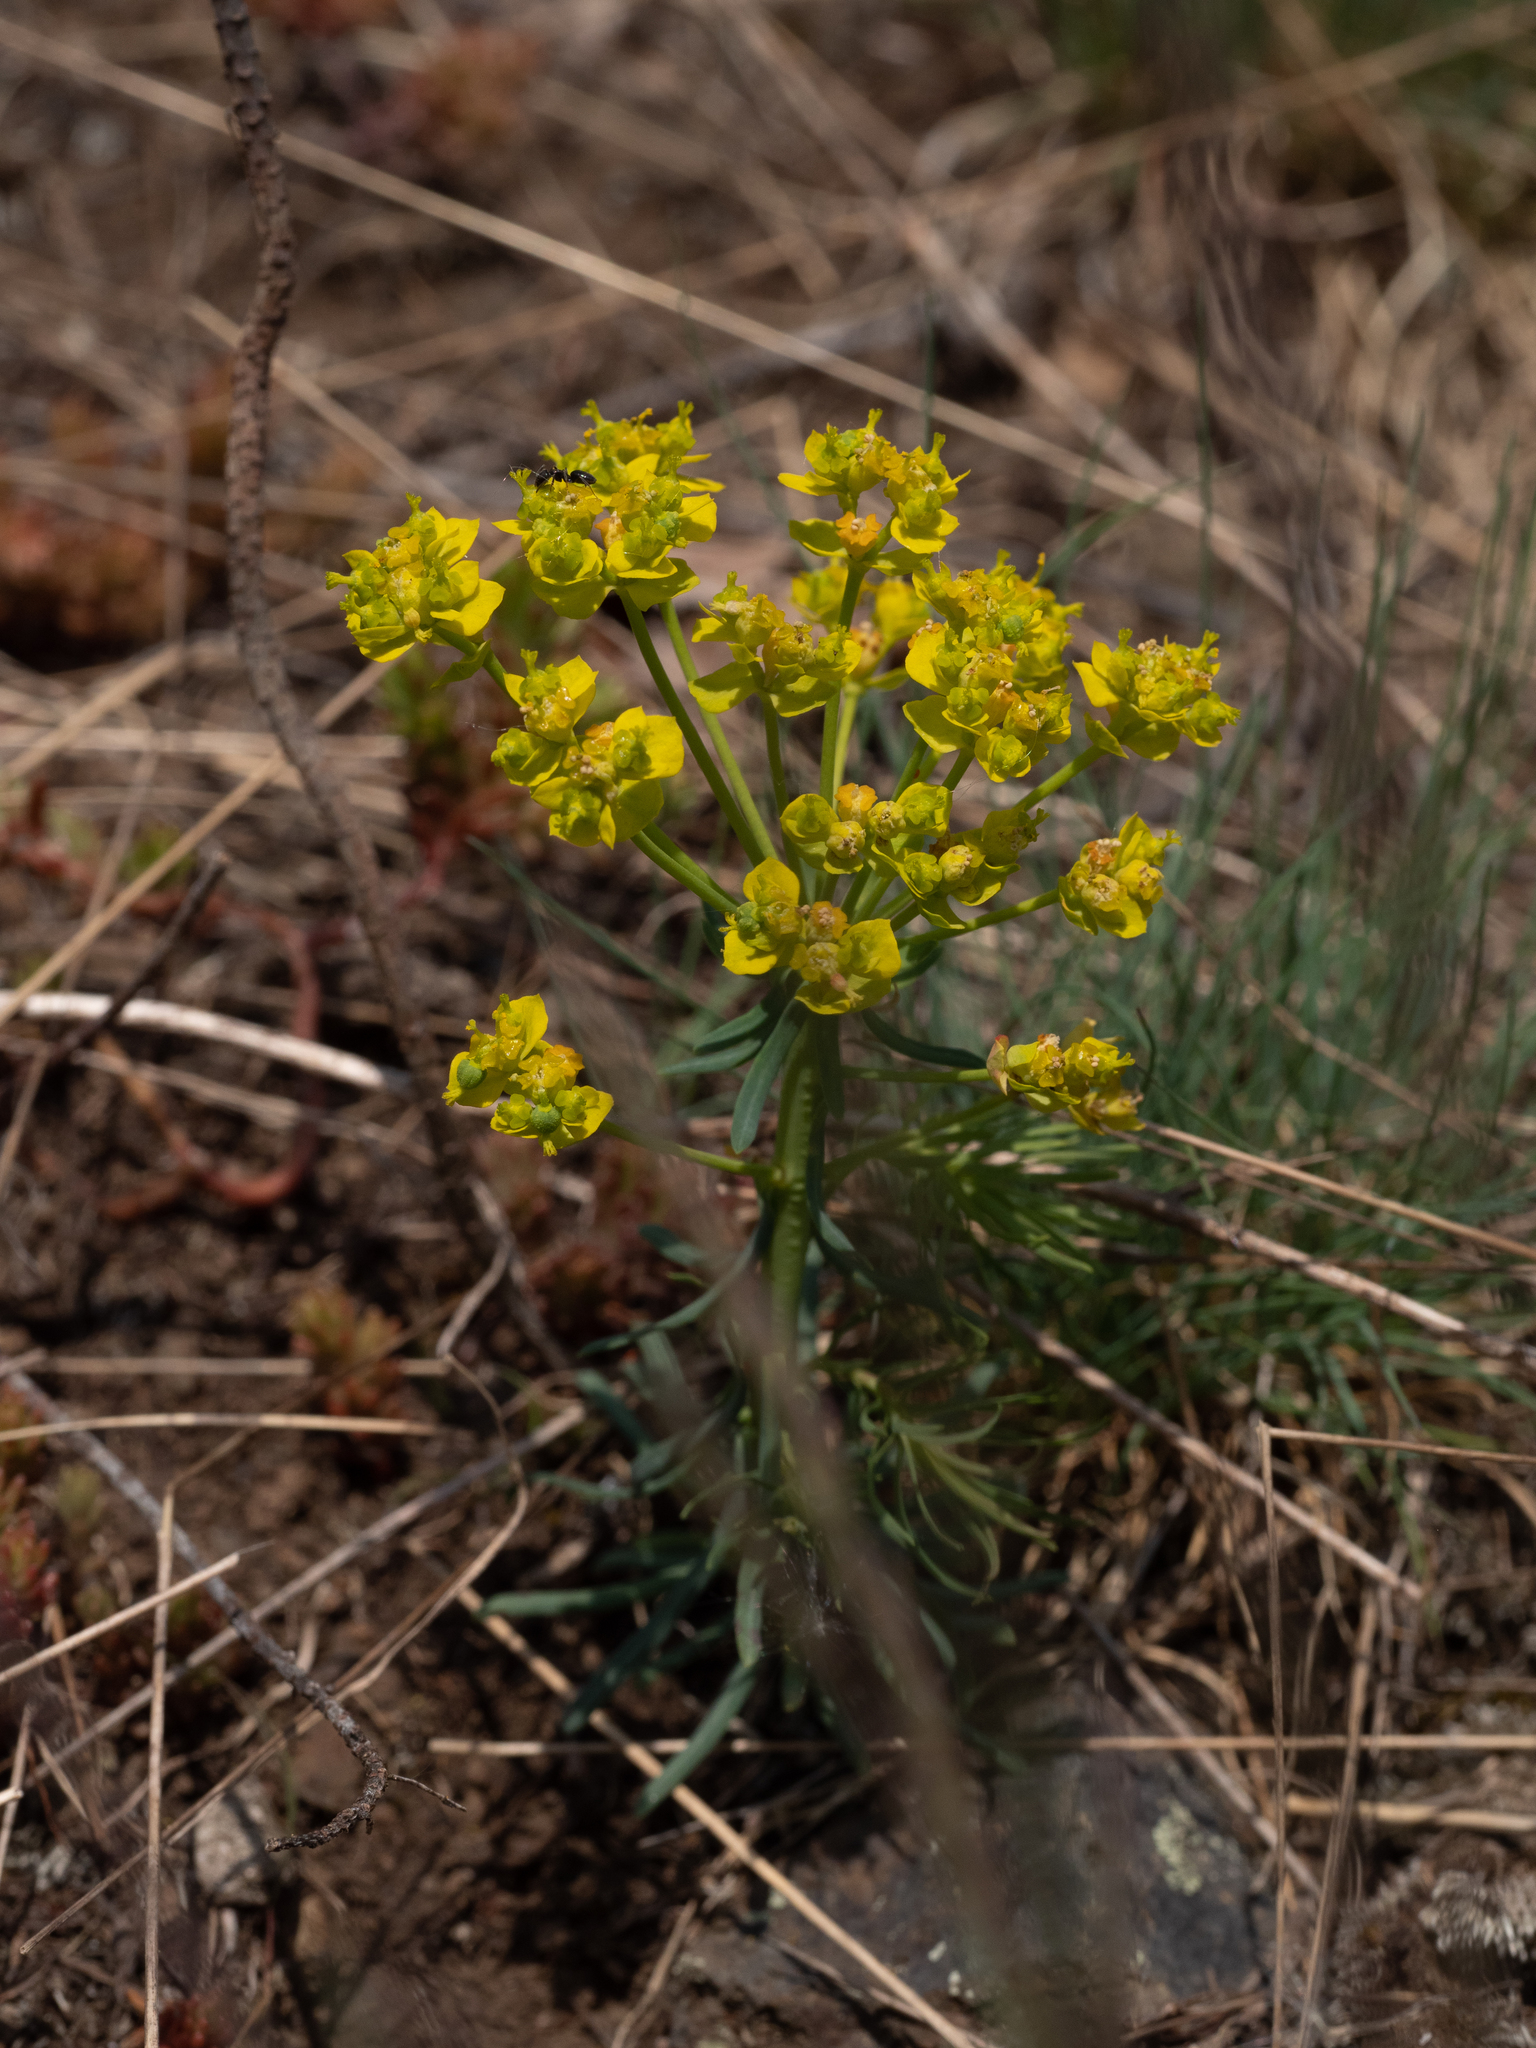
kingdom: Plantae
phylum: Tracheophyta
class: Magnoliopsida
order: Malpighiales
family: Euphorbiaceae
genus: Euphorbia
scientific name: Euphorbia cyparissias
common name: Cypress spurge
